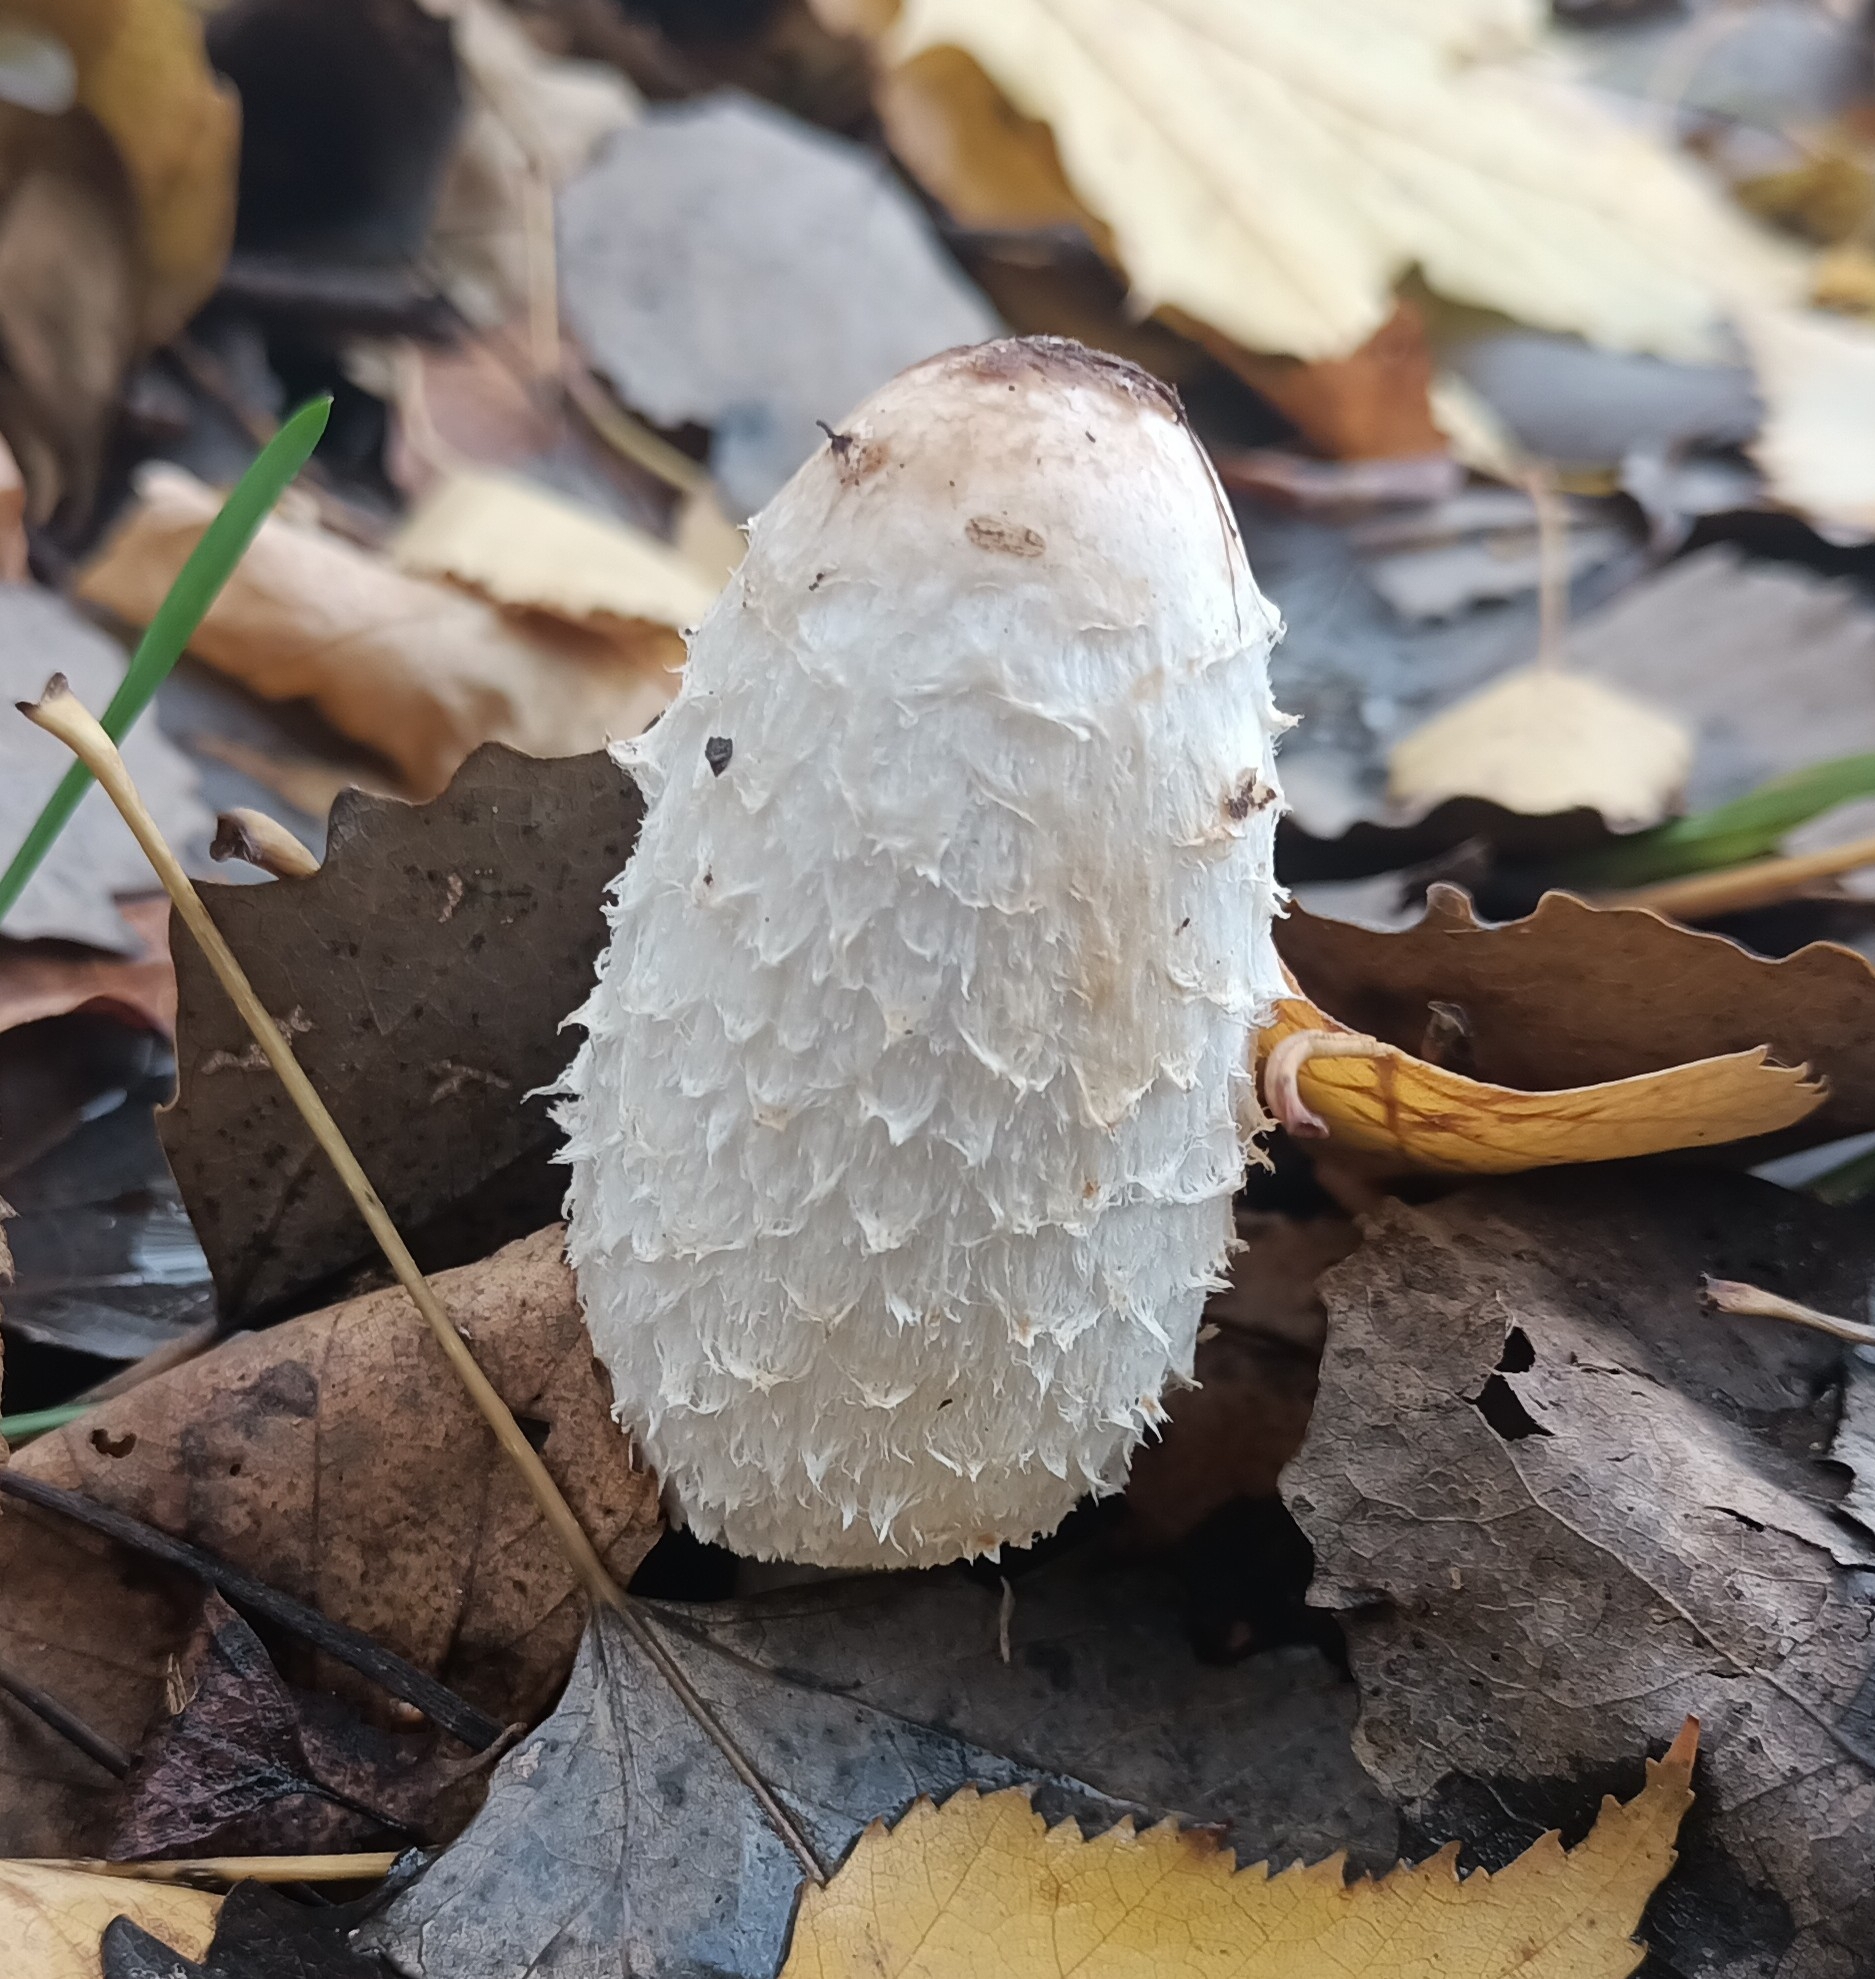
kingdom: Fungi
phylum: Basidiomycota
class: Agaricomycetes
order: Agaricales
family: Agaricaceae
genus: Coprinus
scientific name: Coprinus comatus
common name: Lawyer's wig
